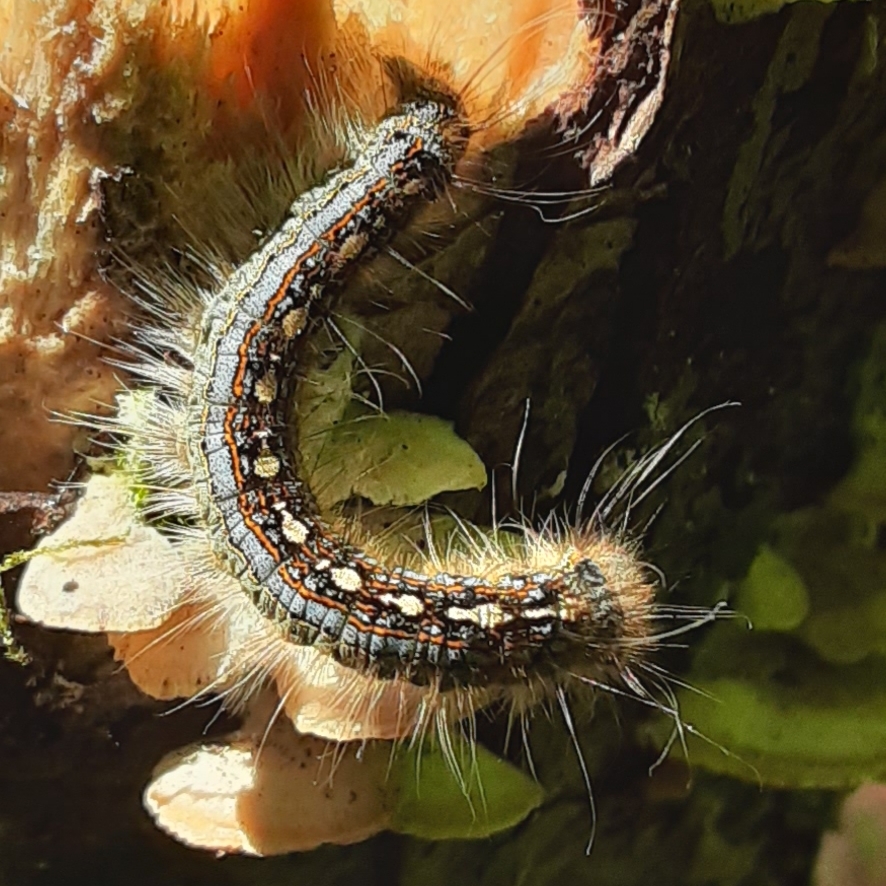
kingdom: Animalia
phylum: Arthropoda
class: Insecta
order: Lepidoptera
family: Lasiocampidae
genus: Malacosoma
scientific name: Malacosoma disstria
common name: Forest tent caterpillar
